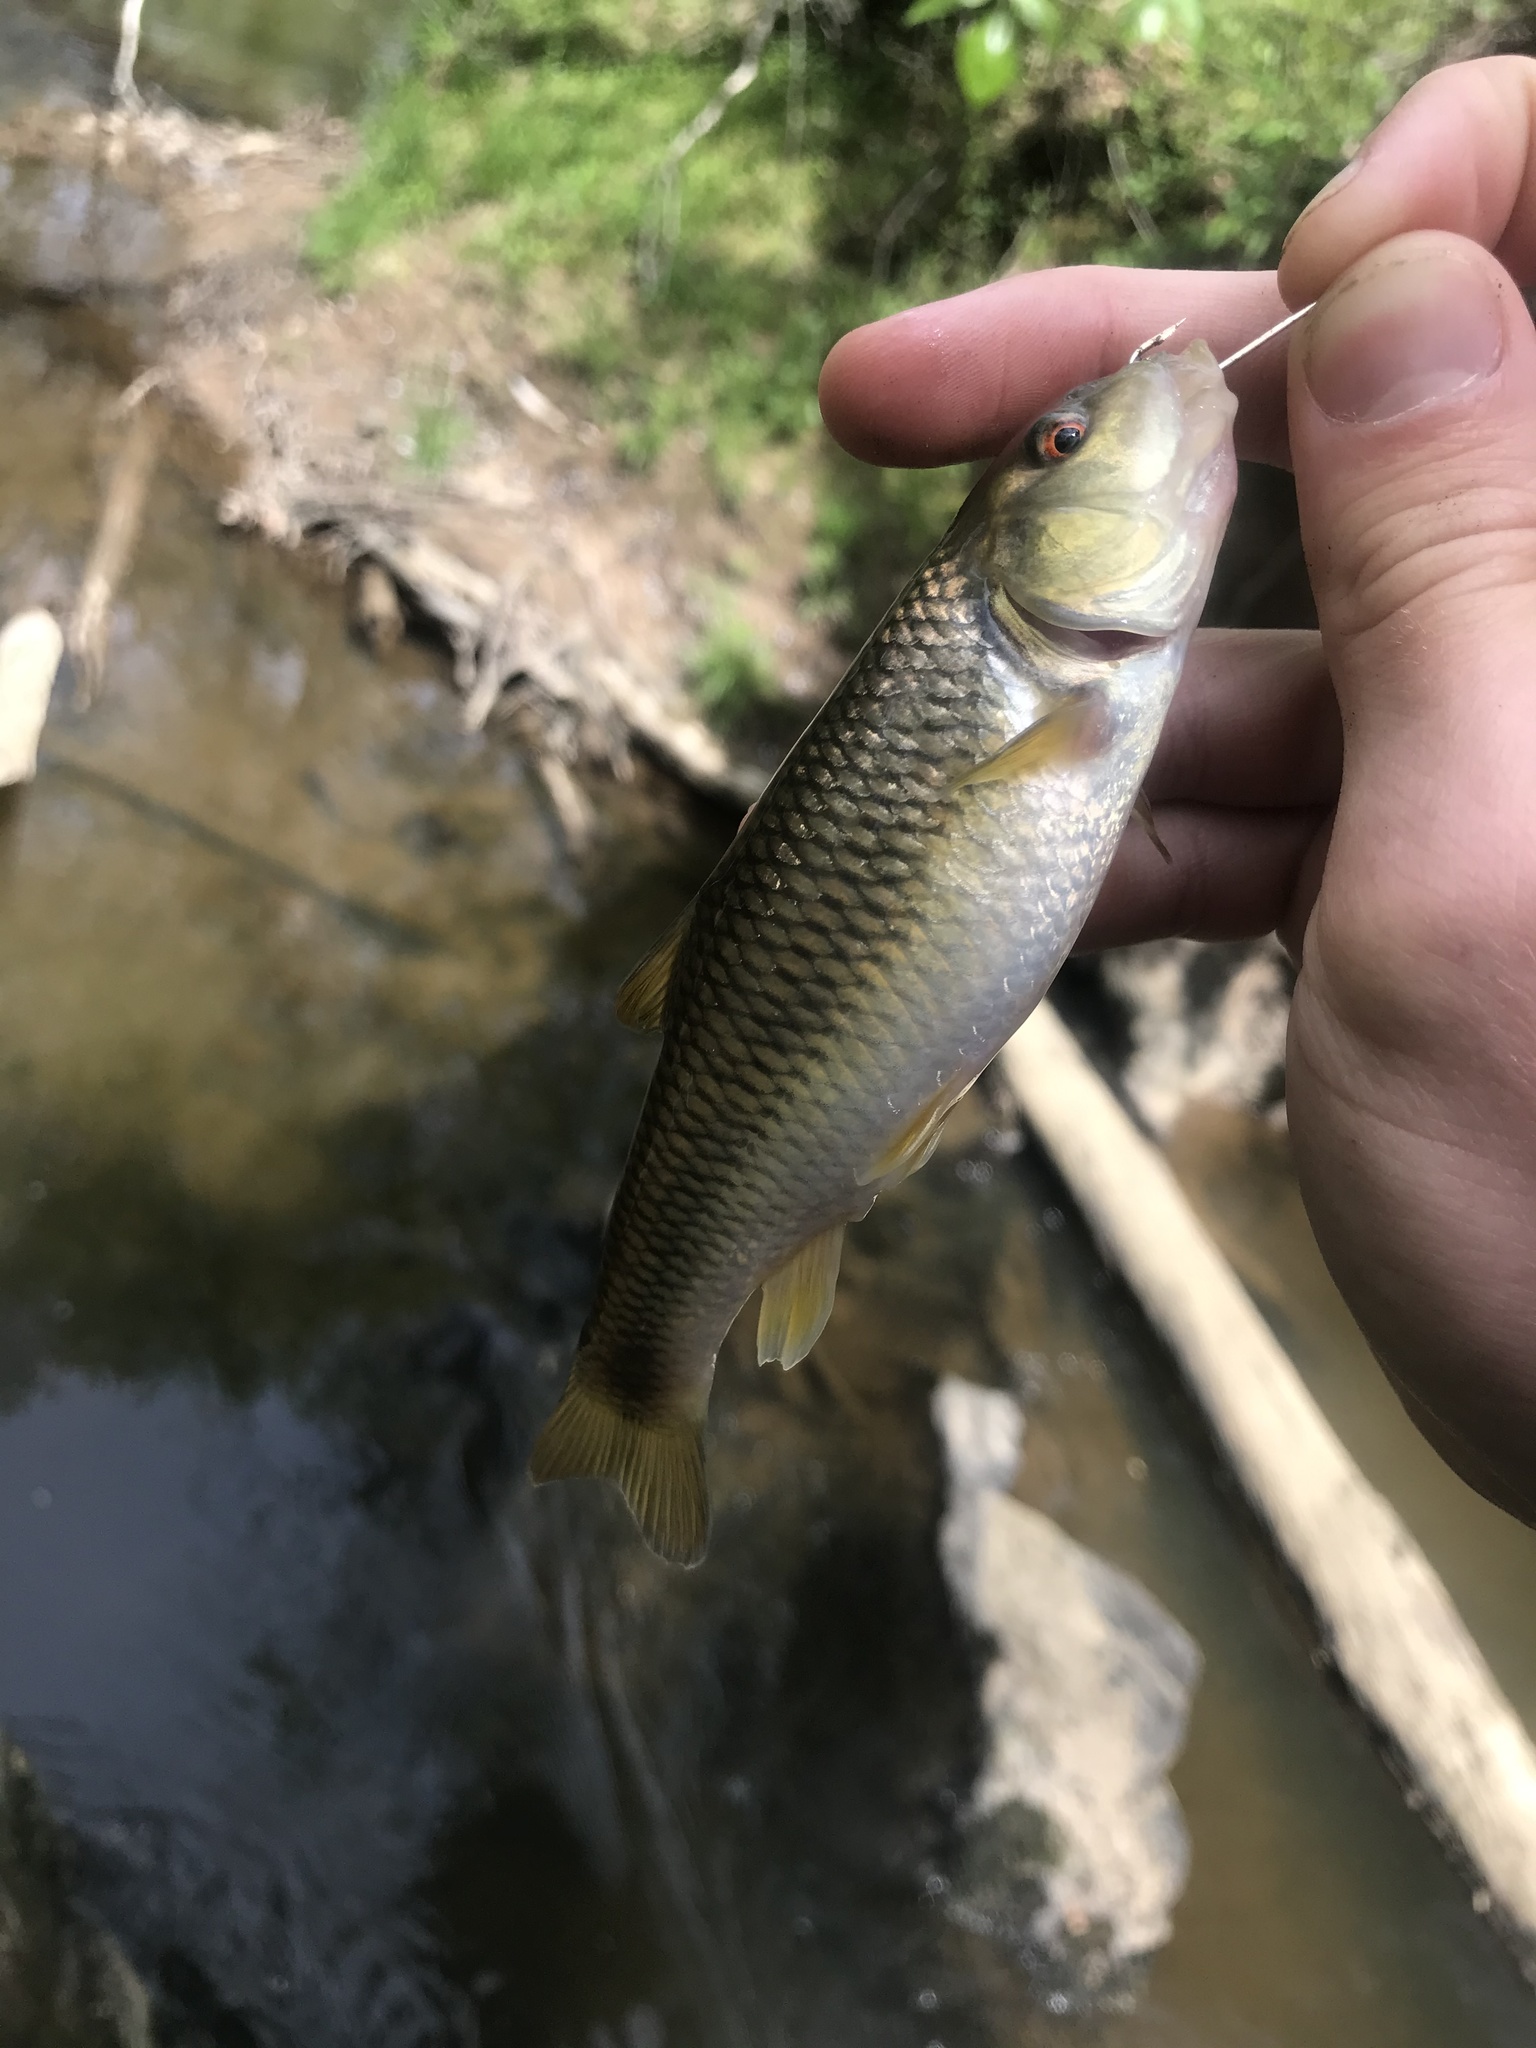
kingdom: Animalia
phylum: Chordata
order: Cypriniformes
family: Cyprinidae
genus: Nocomis
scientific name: Nocomis raneyi
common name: Bull chub
